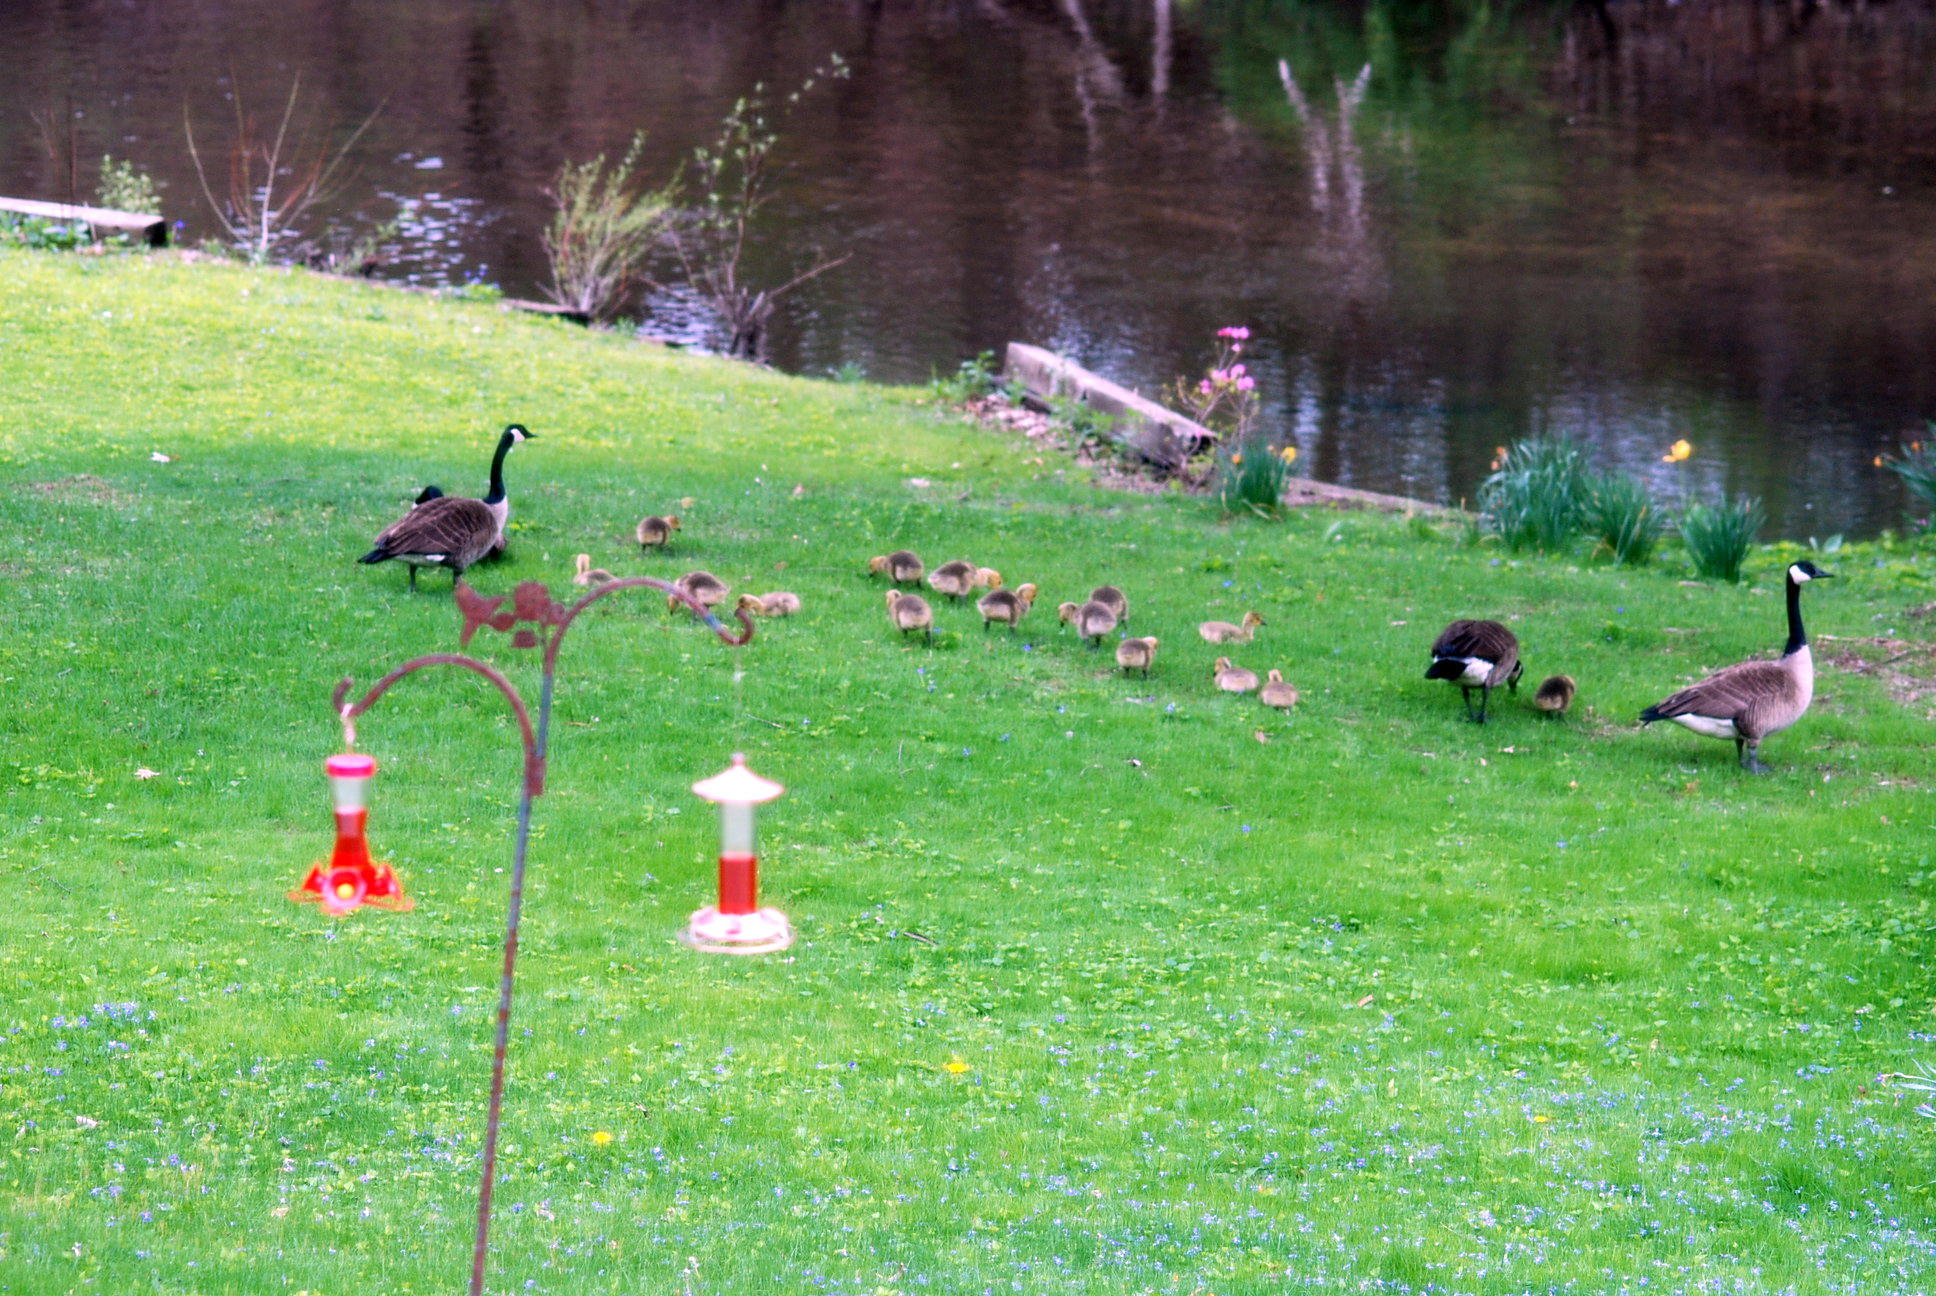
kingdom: Animalia
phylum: Chordata
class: Aves
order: Anseriformes
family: Anatidae
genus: Branta
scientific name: Branta canadensis
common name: Canada goose
